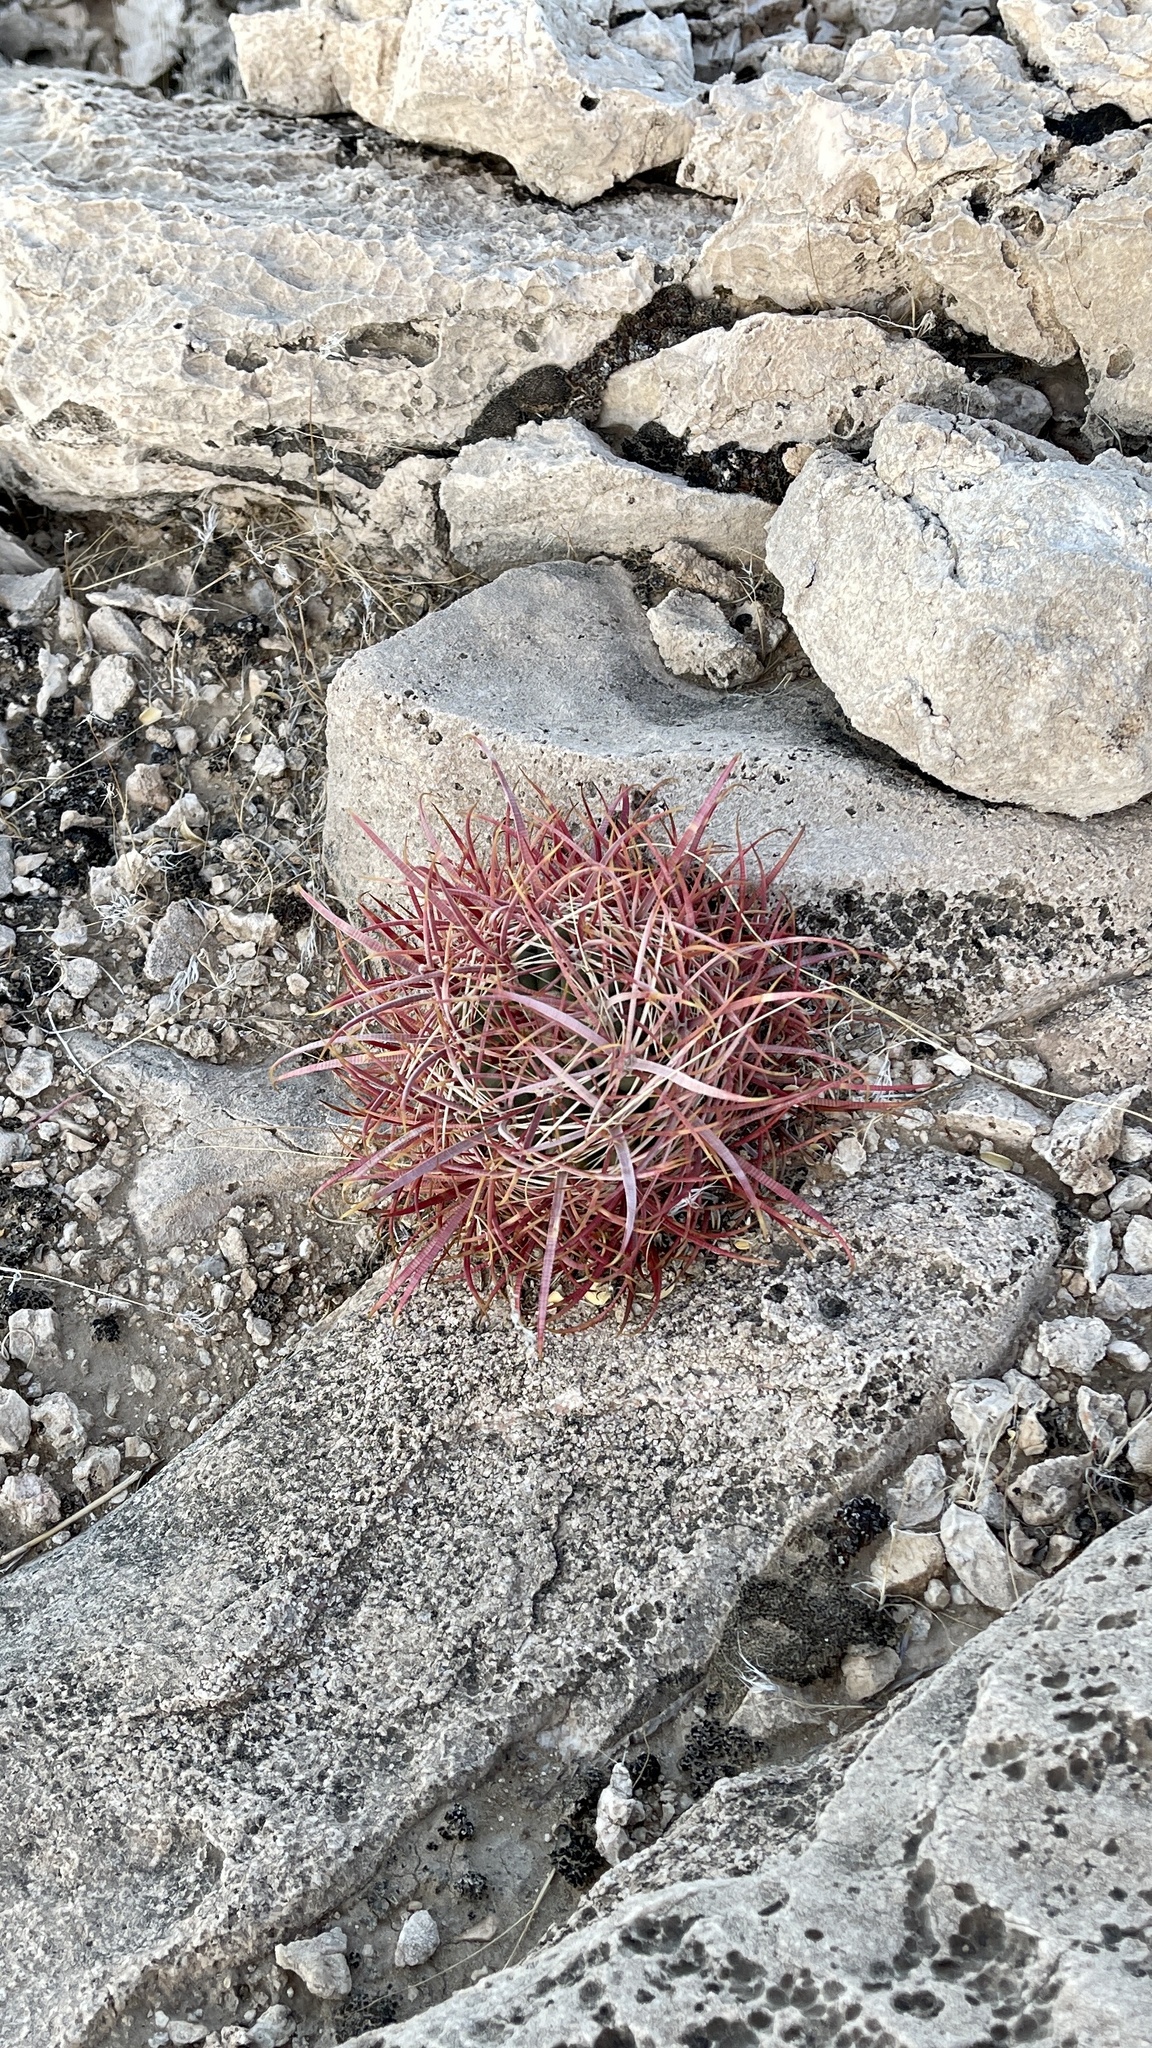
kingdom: Plantae
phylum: Tracheophyta
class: Magnoliopsida
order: Caryophyllales
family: Cactaceae
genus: Ferocactus
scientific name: Ferocactus cylindraceus
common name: California barrel cactus
